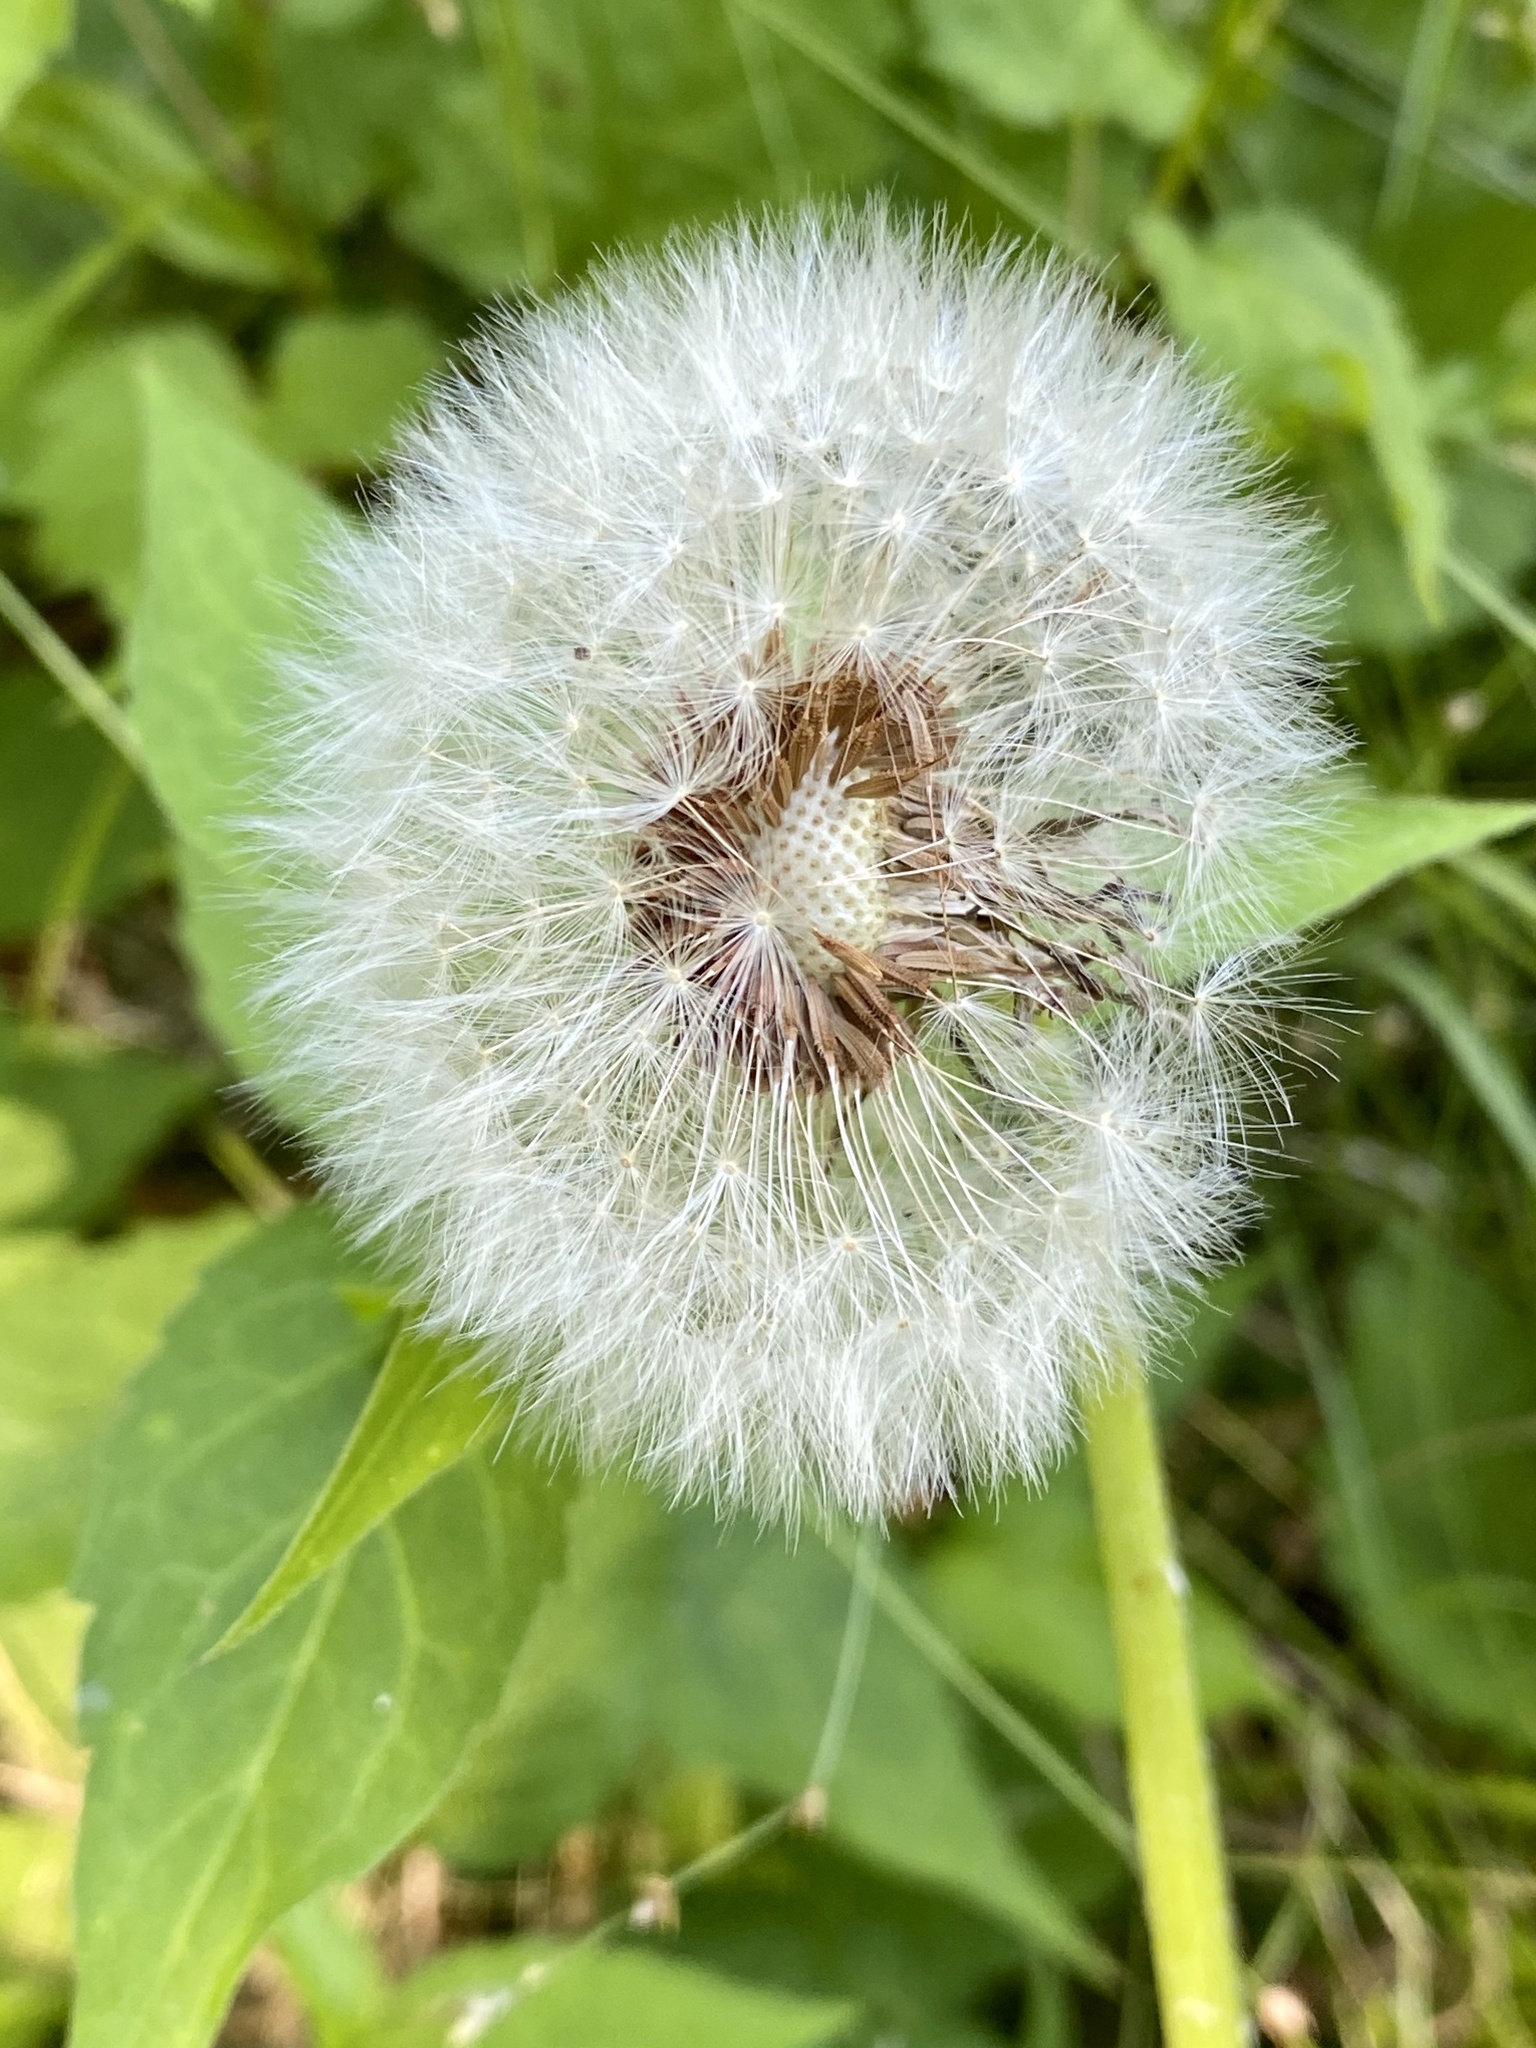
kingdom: Plantae
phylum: Tracheophyta
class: Magnoliopsida
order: Asterales
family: Asteraceae
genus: Taraxacum
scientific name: Taraxacum officinale
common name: Common dandelion
